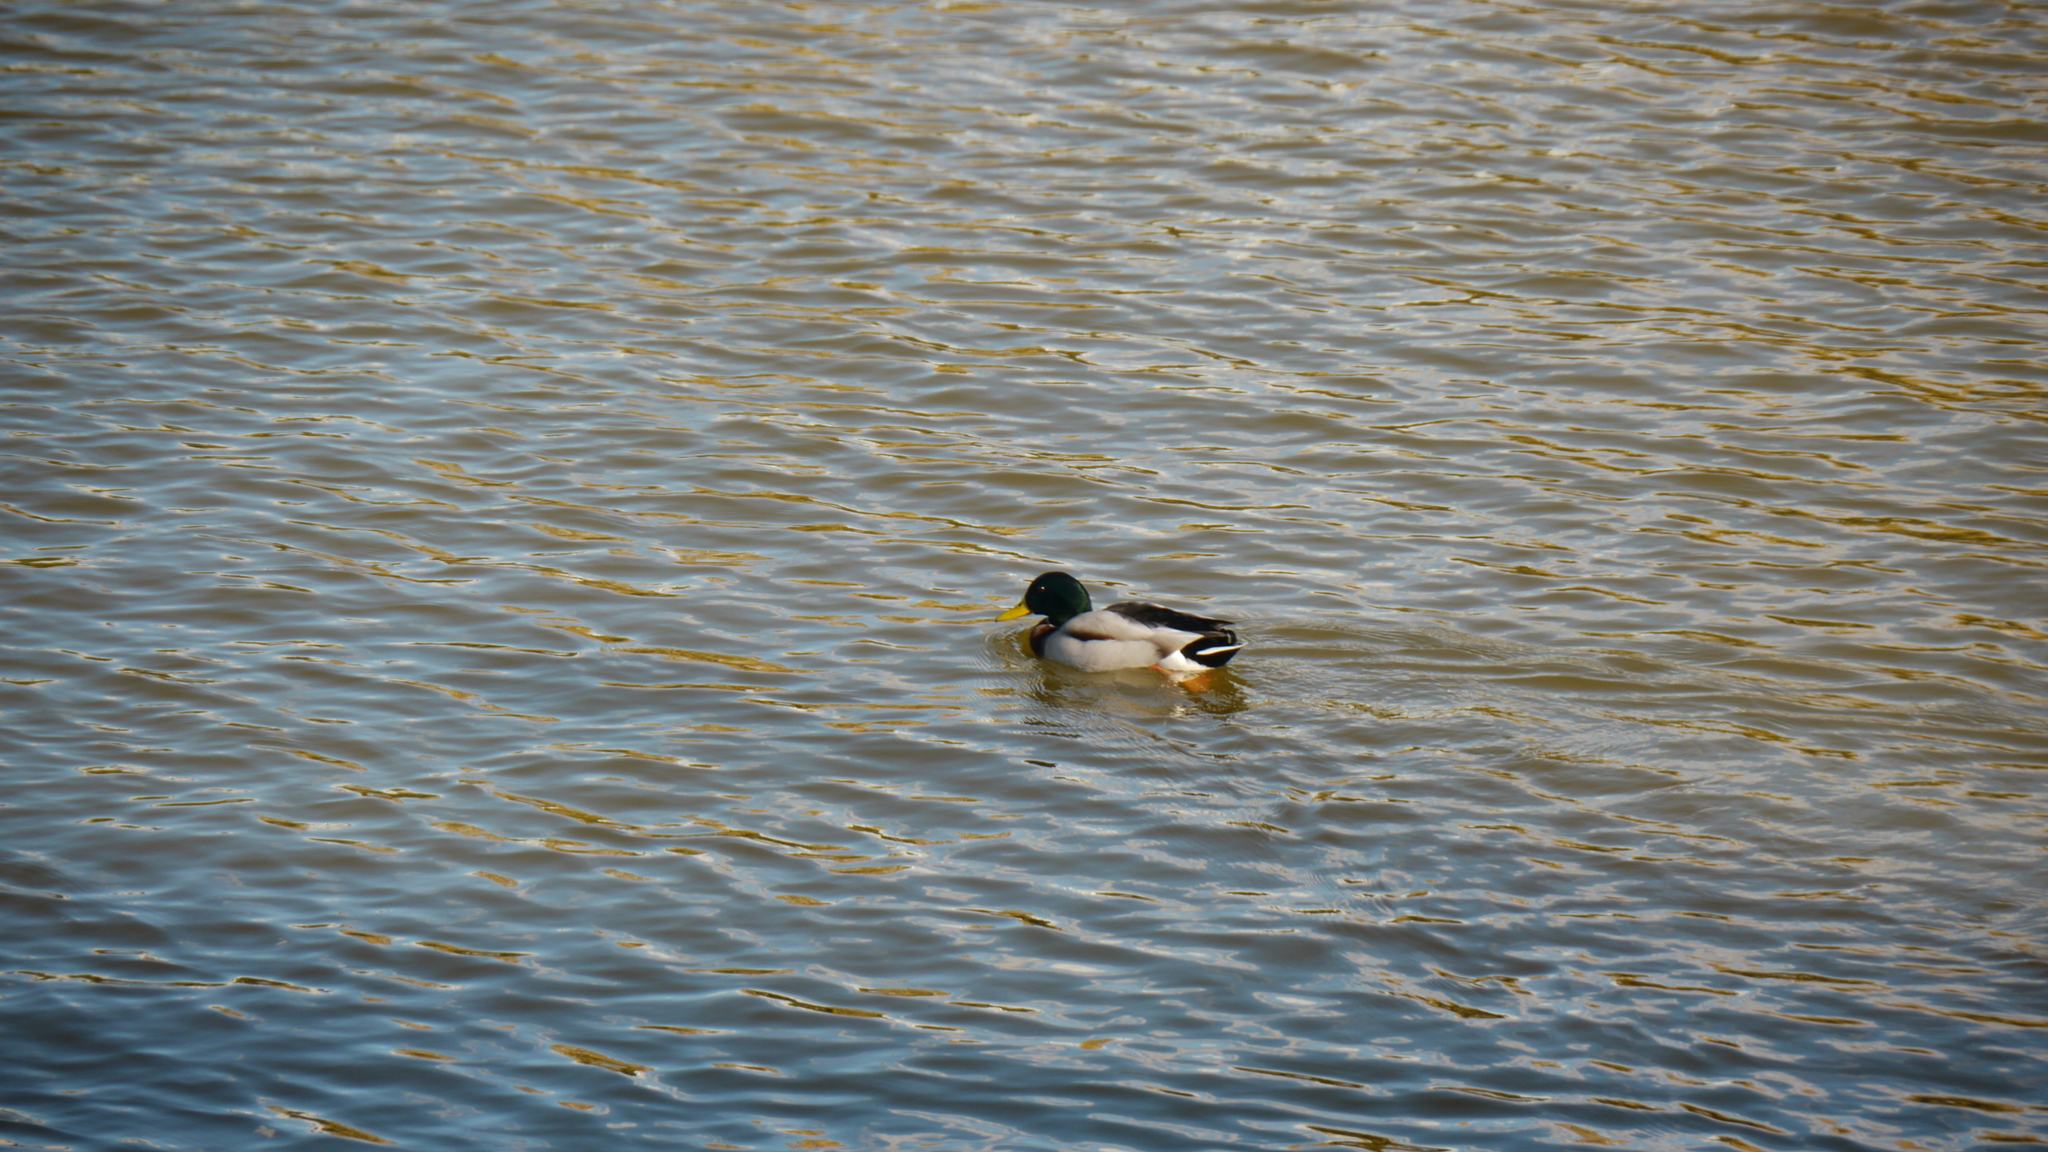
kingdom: Animalia
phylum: Chordata
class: Aves
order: Anseriformes
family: Anatidae
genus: Anas
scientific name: Anas platyrhynchos
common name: Mallard
